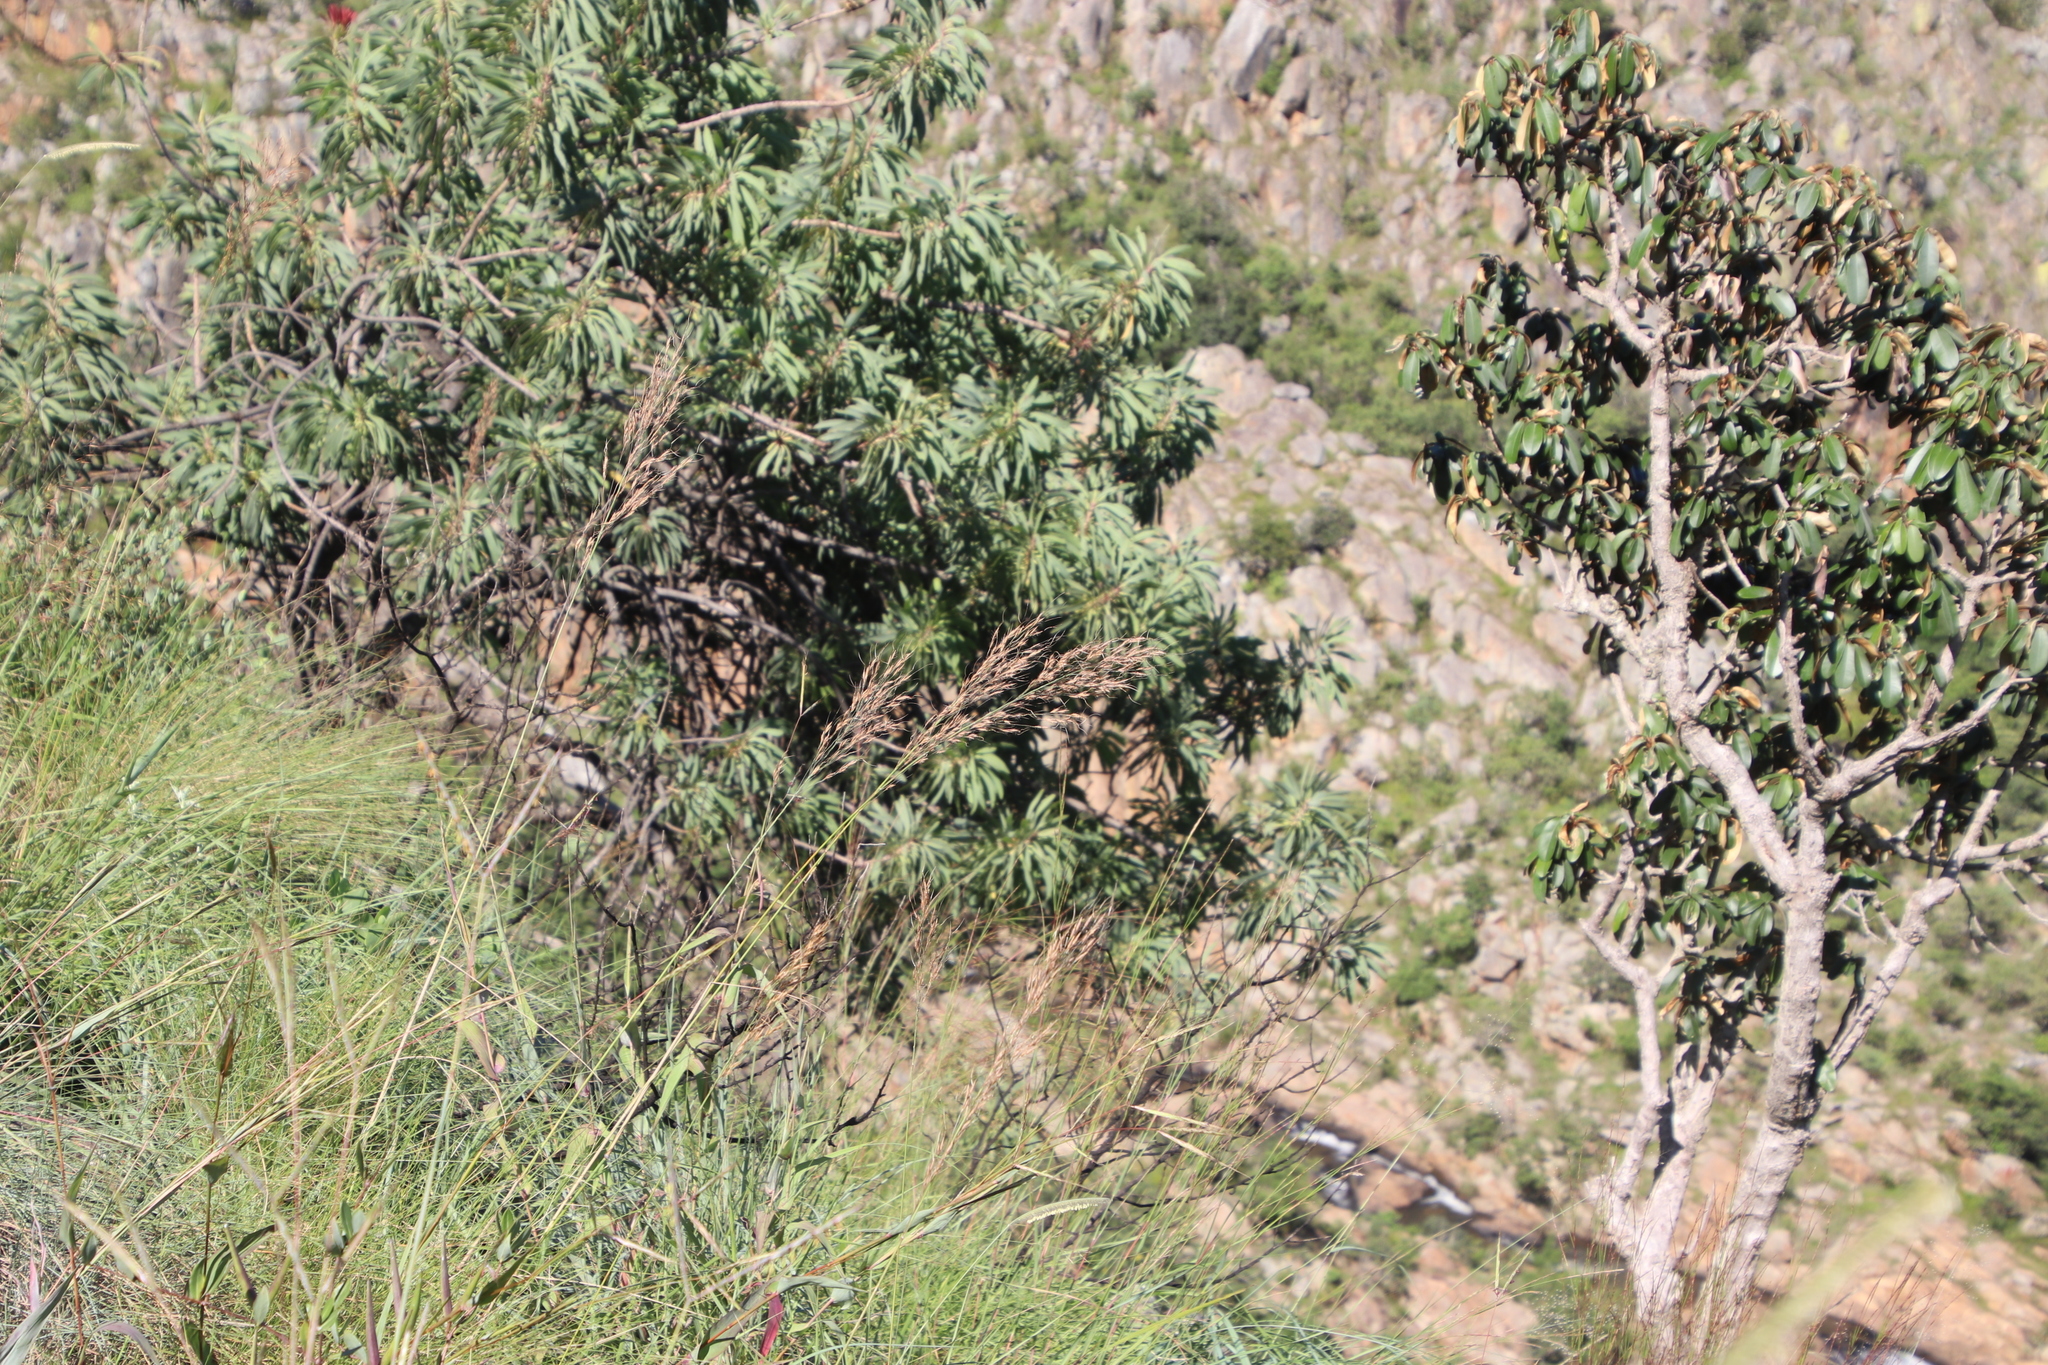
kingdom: Plantae
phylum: Tracheophyta
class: Magnoliopsida
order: Proteales
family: Proteaceae
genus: Protea
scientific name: Protea caffra
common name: Common sugarbush
